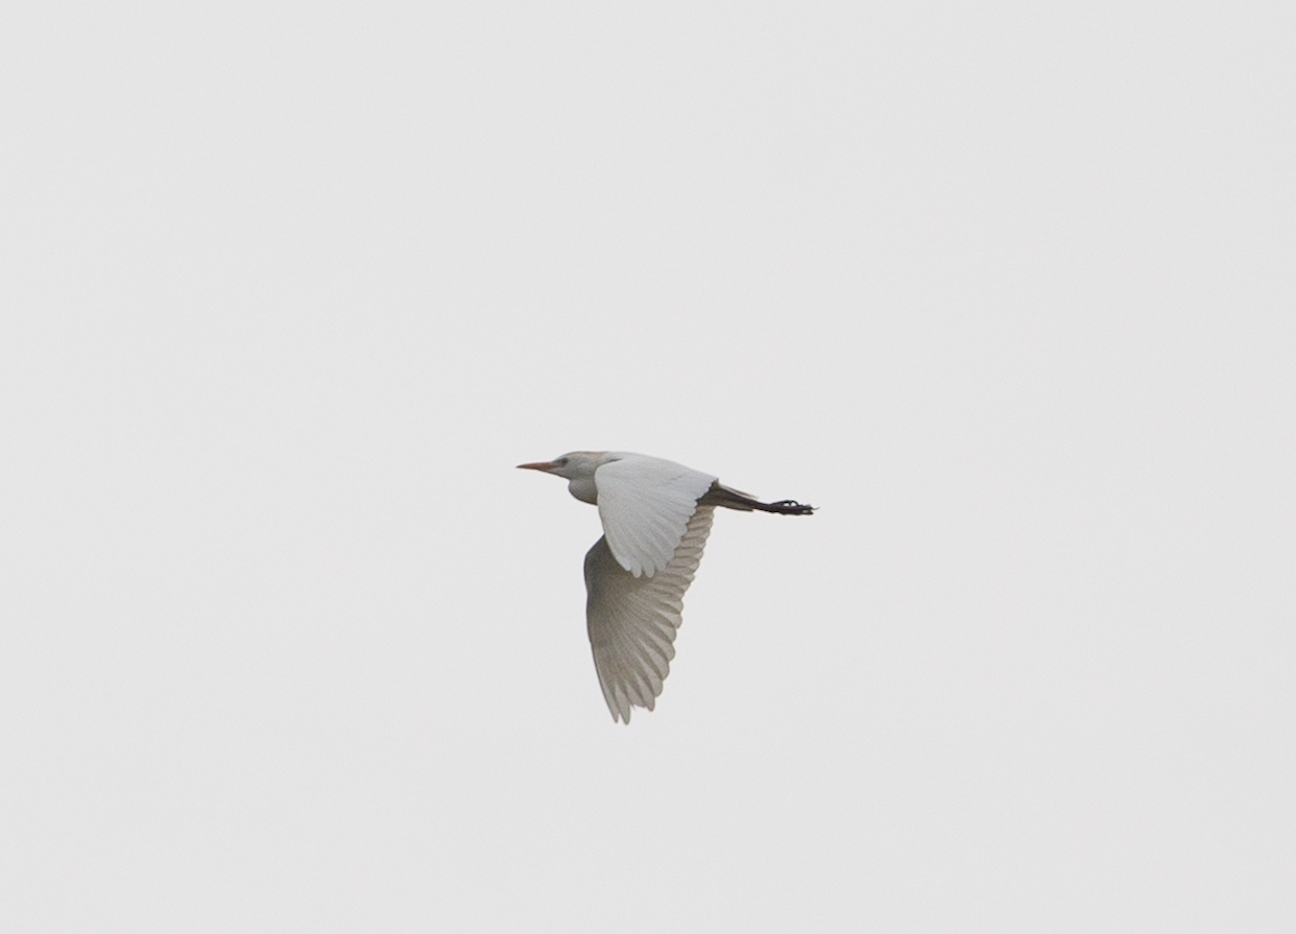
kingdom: Animalia
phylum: Chordata
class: Aves
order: Pelecaniformes
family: Ardeidae
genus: Bubulcus
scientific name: Bubulcus ibis
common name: Cattle egret
